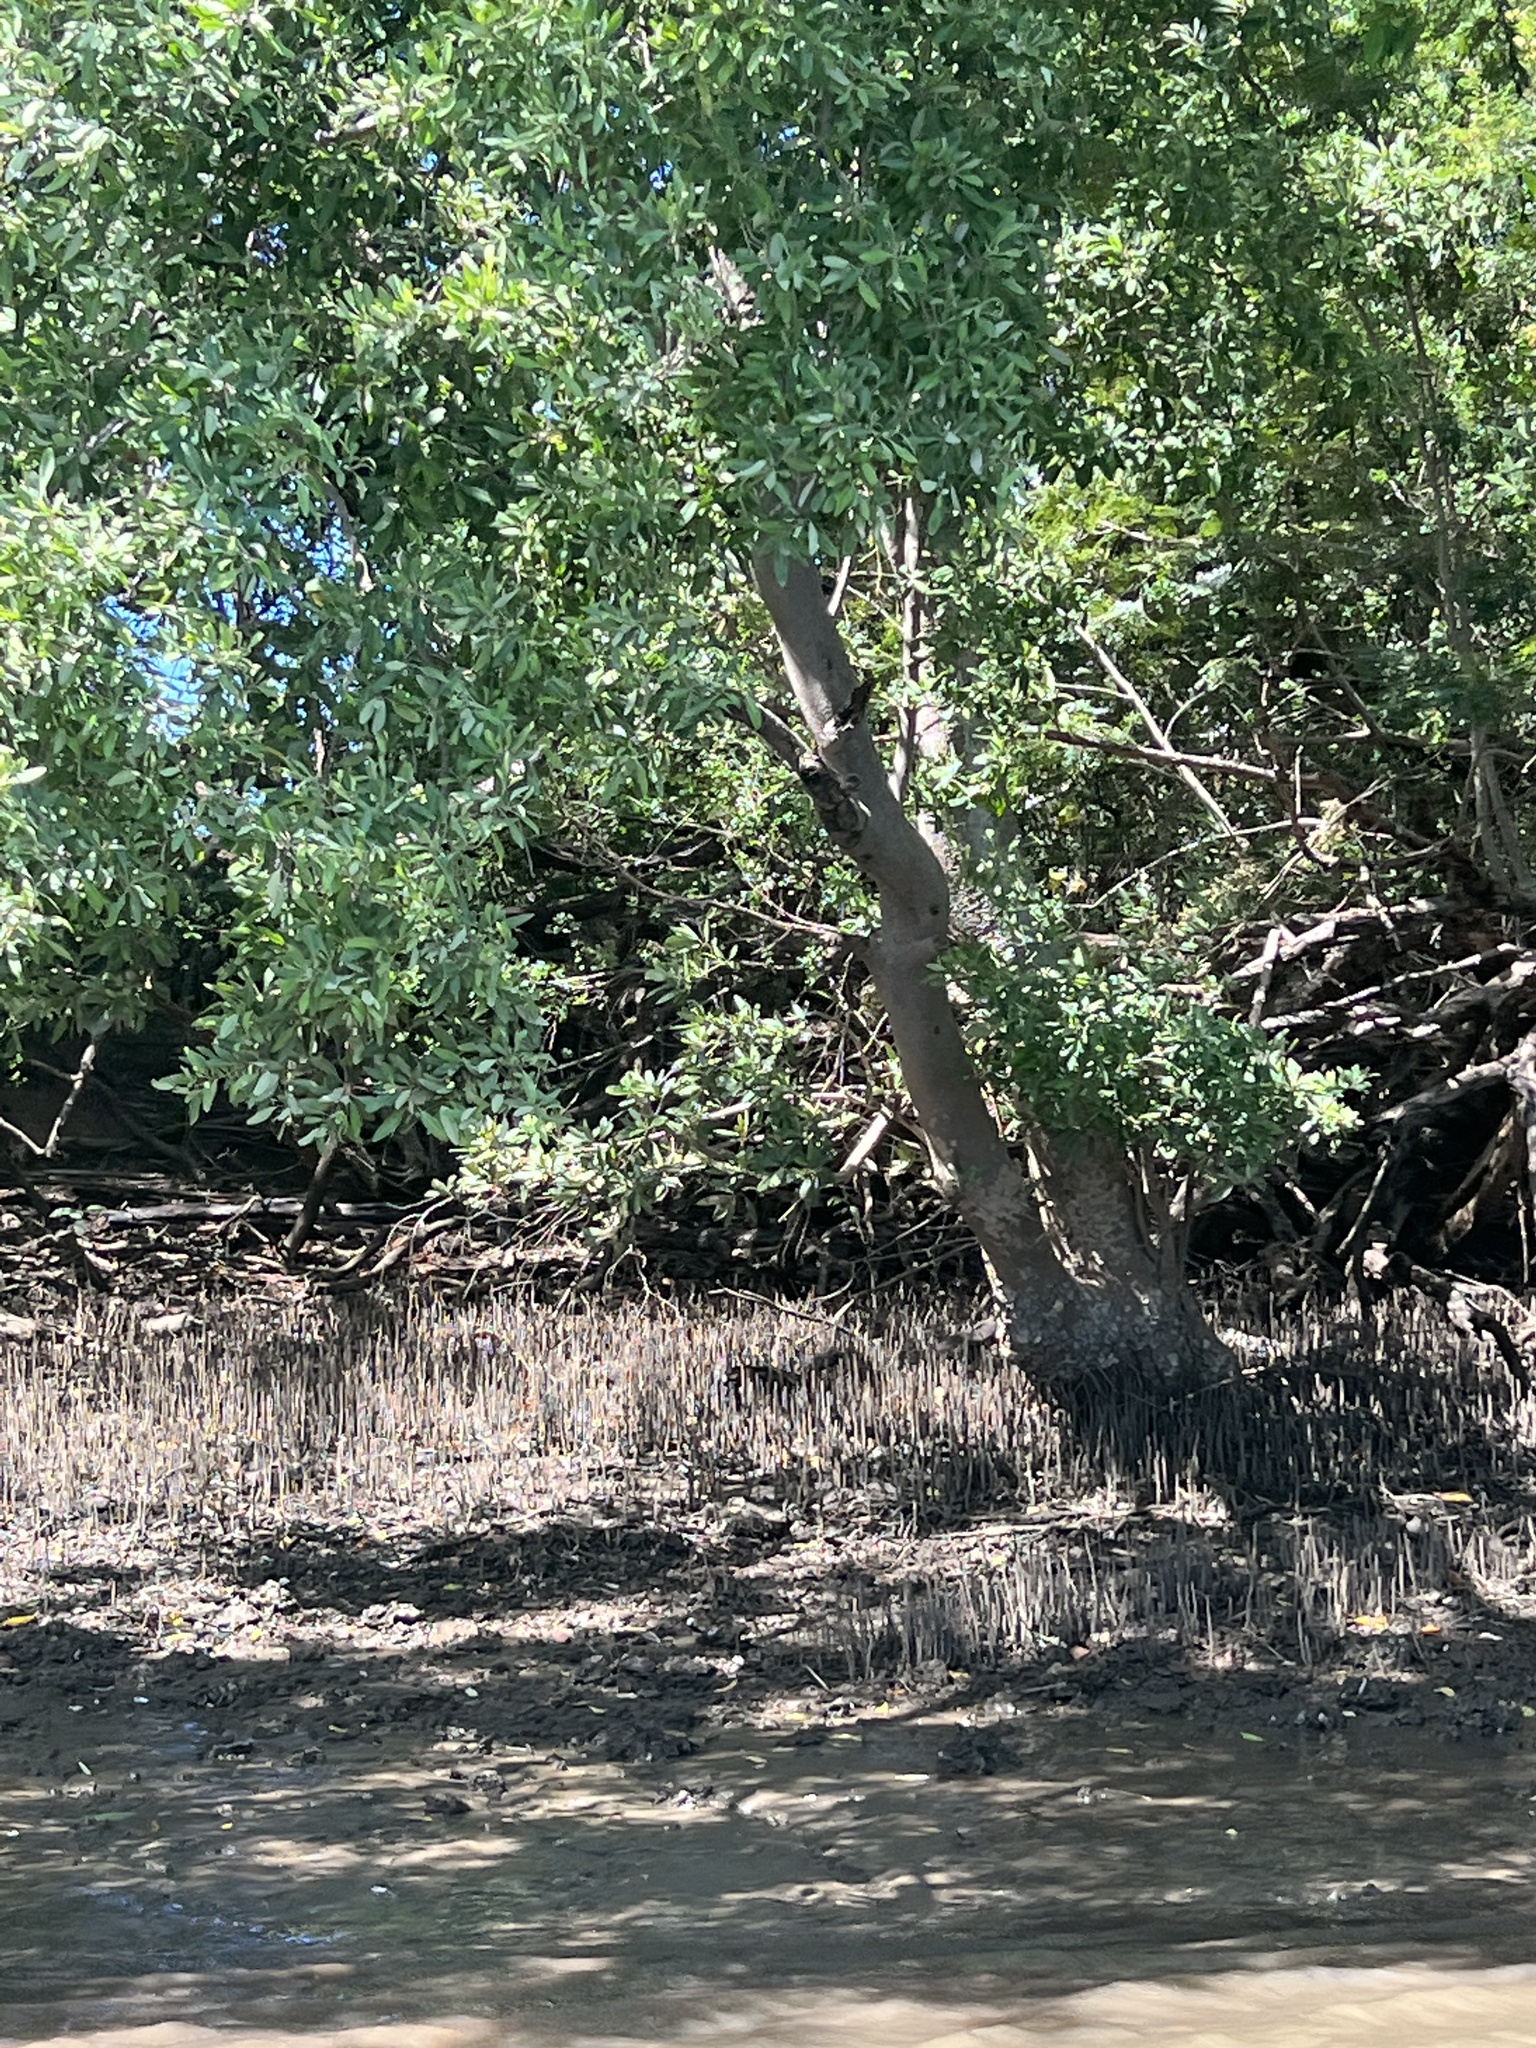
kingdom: Plantae
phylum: Tracheophyta
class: Magnoliopsida
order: Lamiales
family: Acanthaceae
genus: Avicennia
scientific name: Avicennia germinans
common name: Black mangrove
